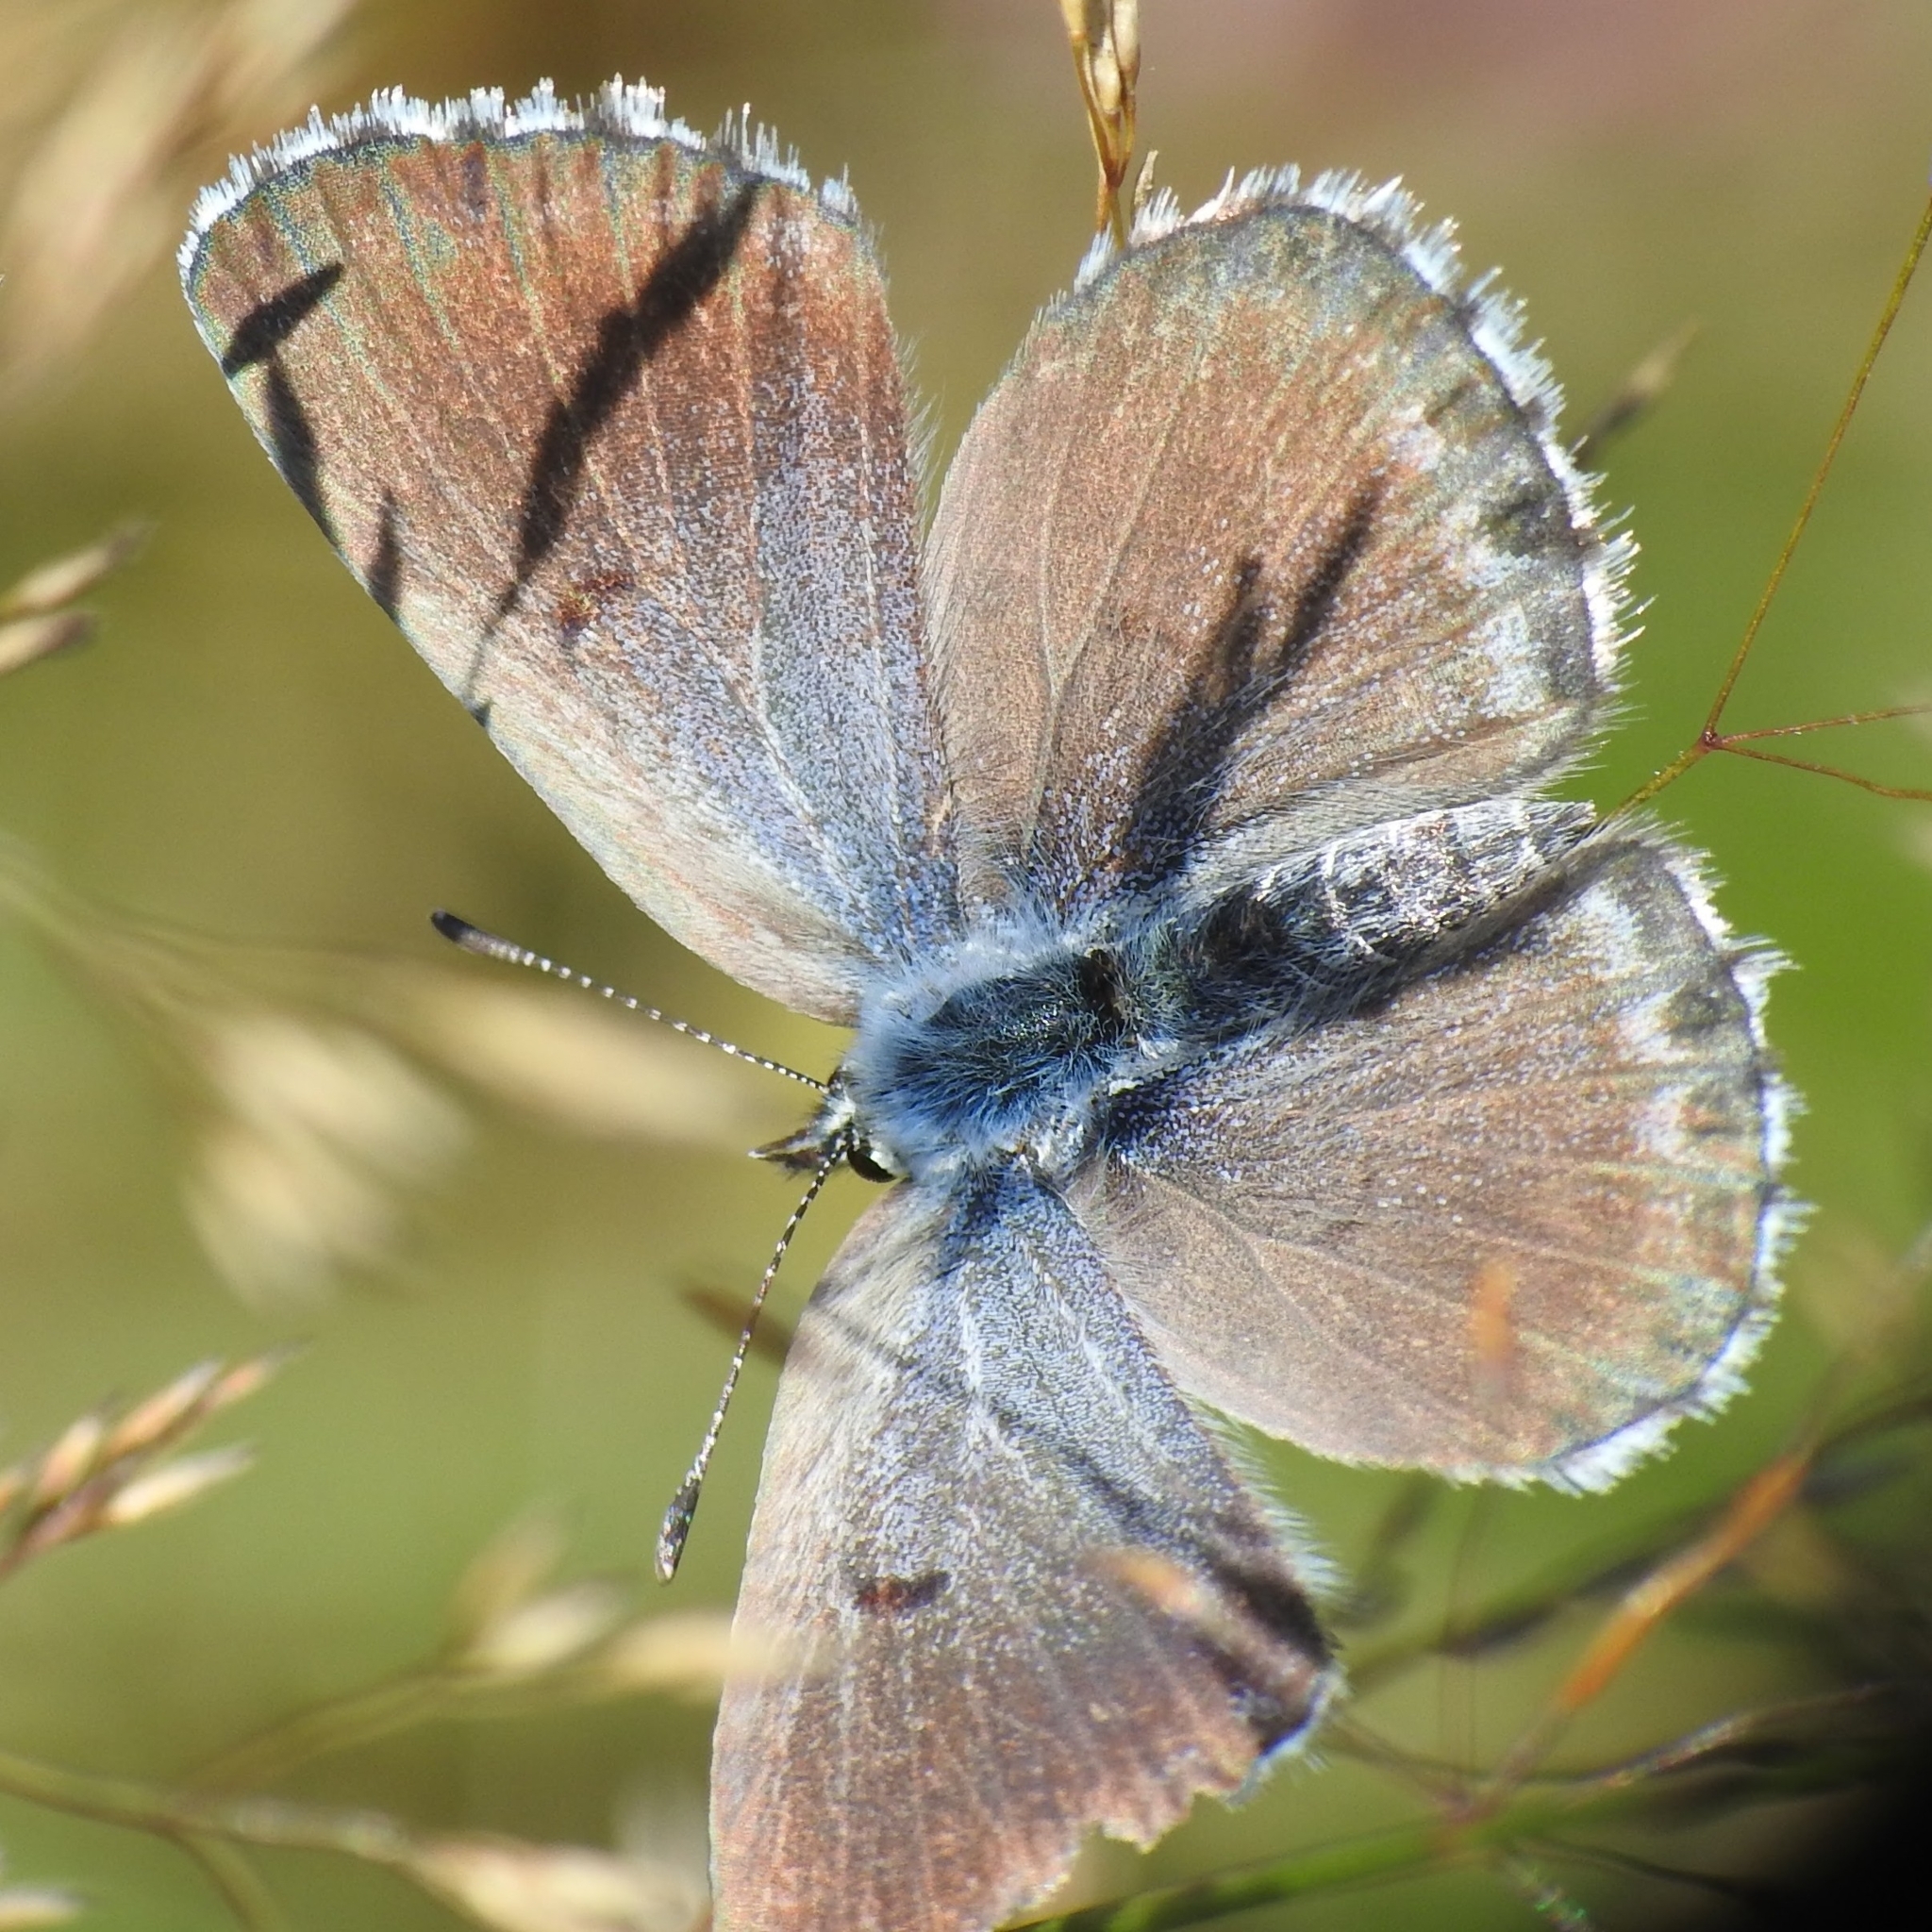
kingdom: Animalia
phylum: Arthropoda
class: Insecta
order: Lepidoptera
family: Lycaenidae
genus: Pseudophilotes
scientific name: Pseudophilotes baton
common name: Baton blue
